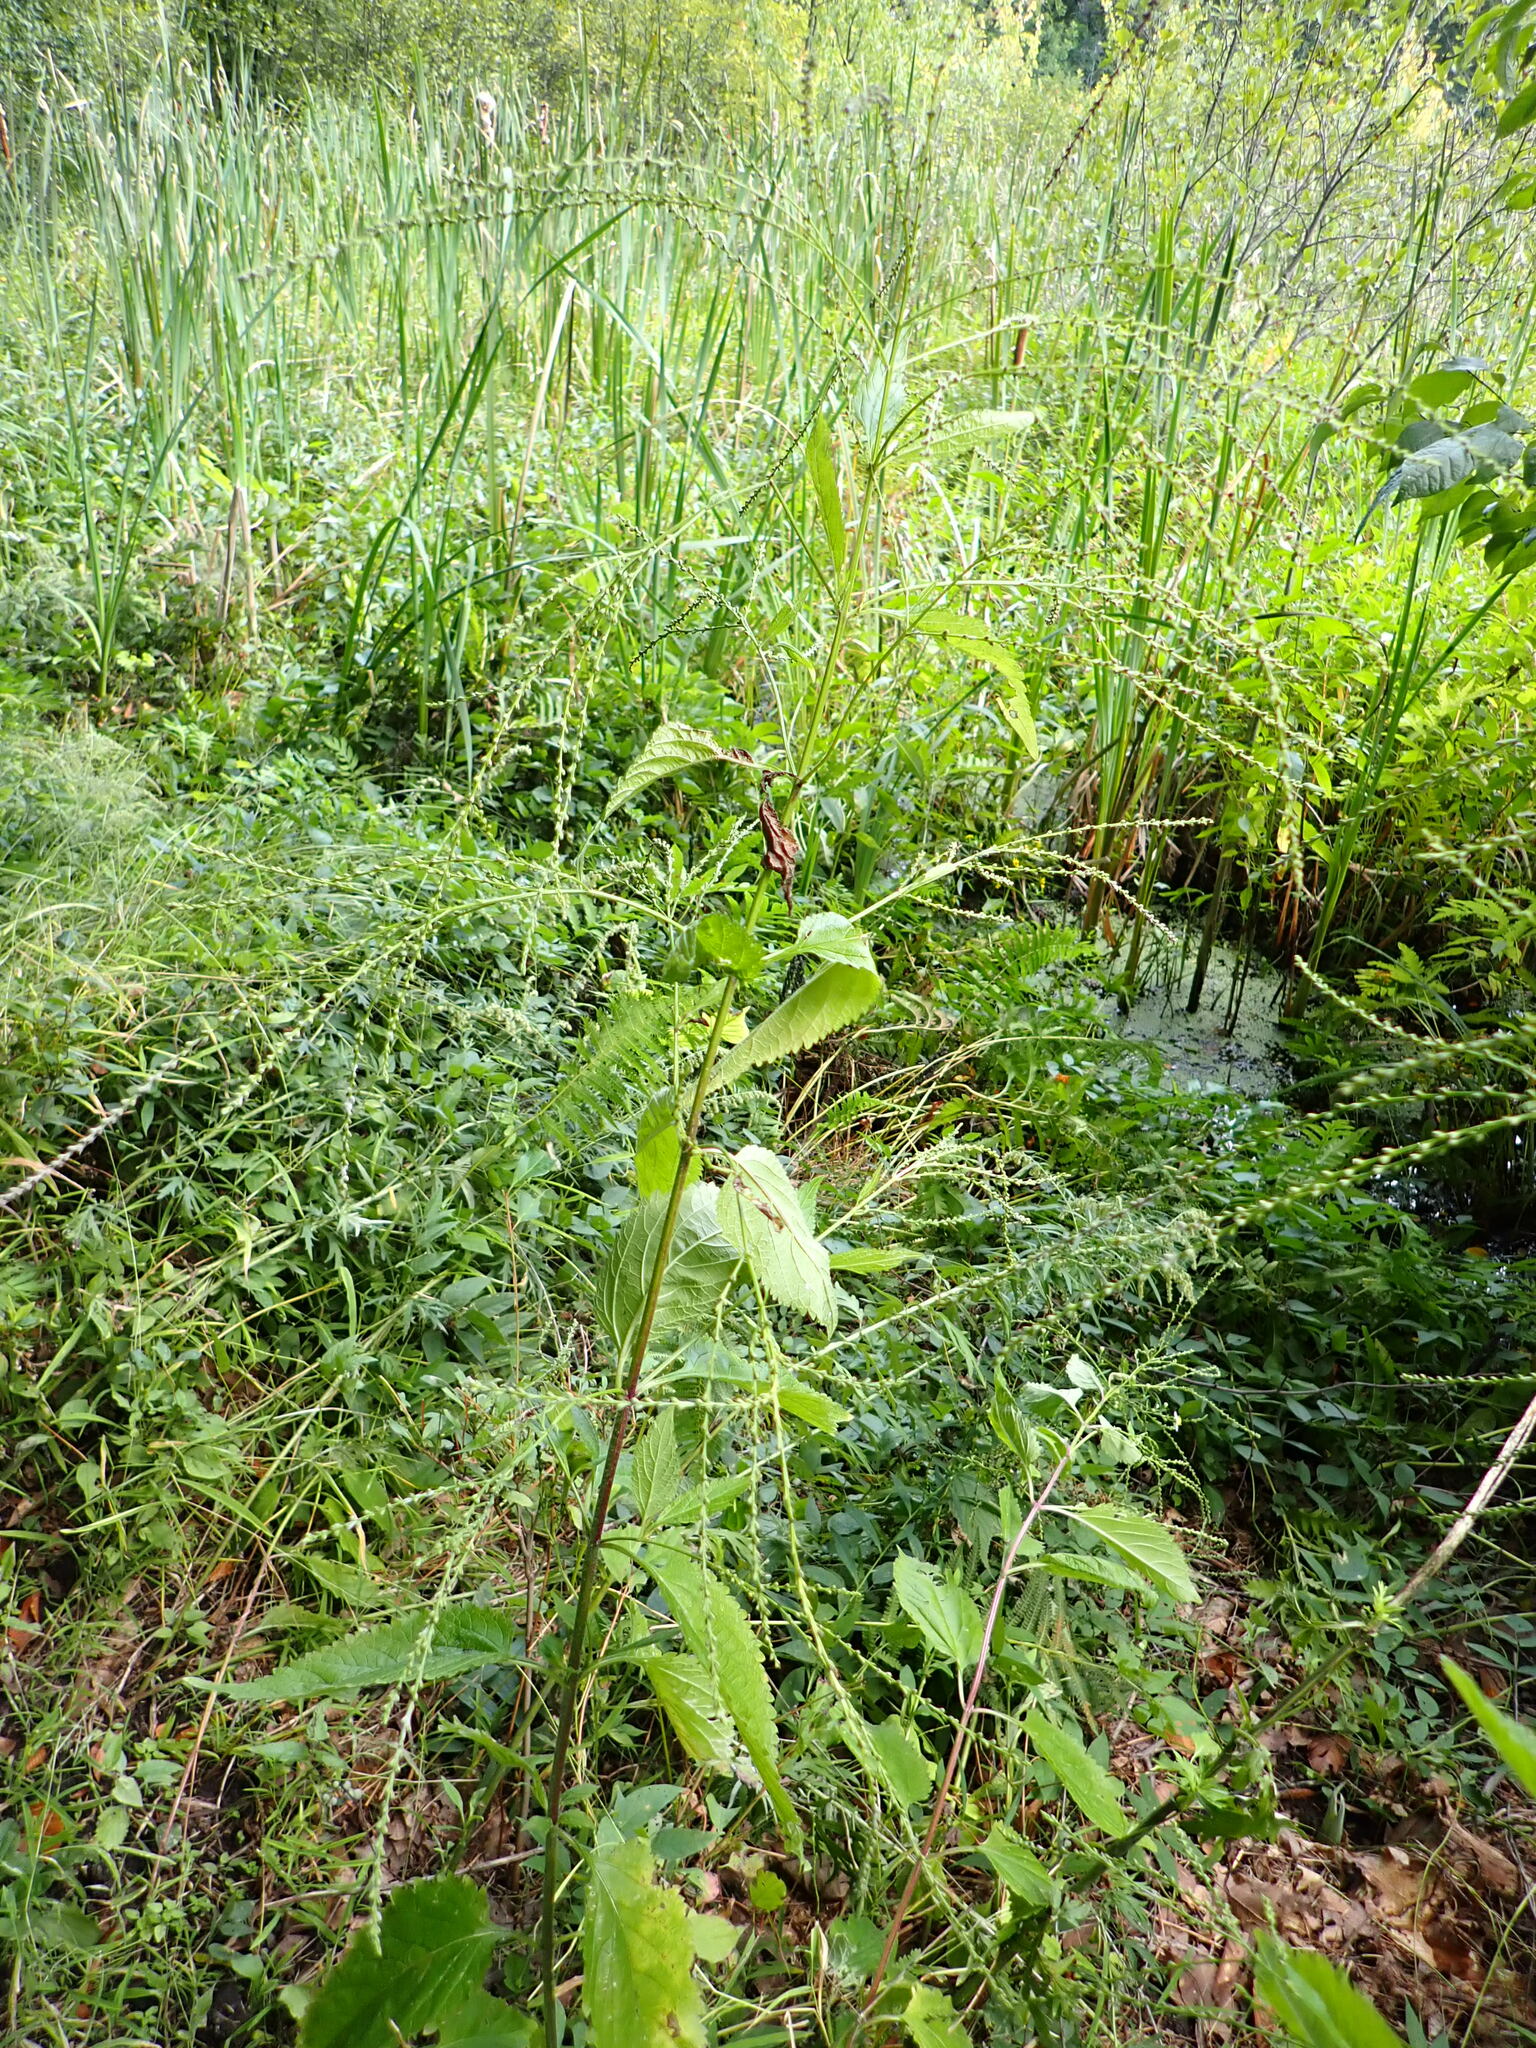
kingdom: Plantae
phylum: Tracheophyta
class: Magnoliopsida
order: Lamiales
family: Verbenaceae
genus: Verbena
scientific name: Verbena urticifolia
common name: Nettle-leaved vervain
